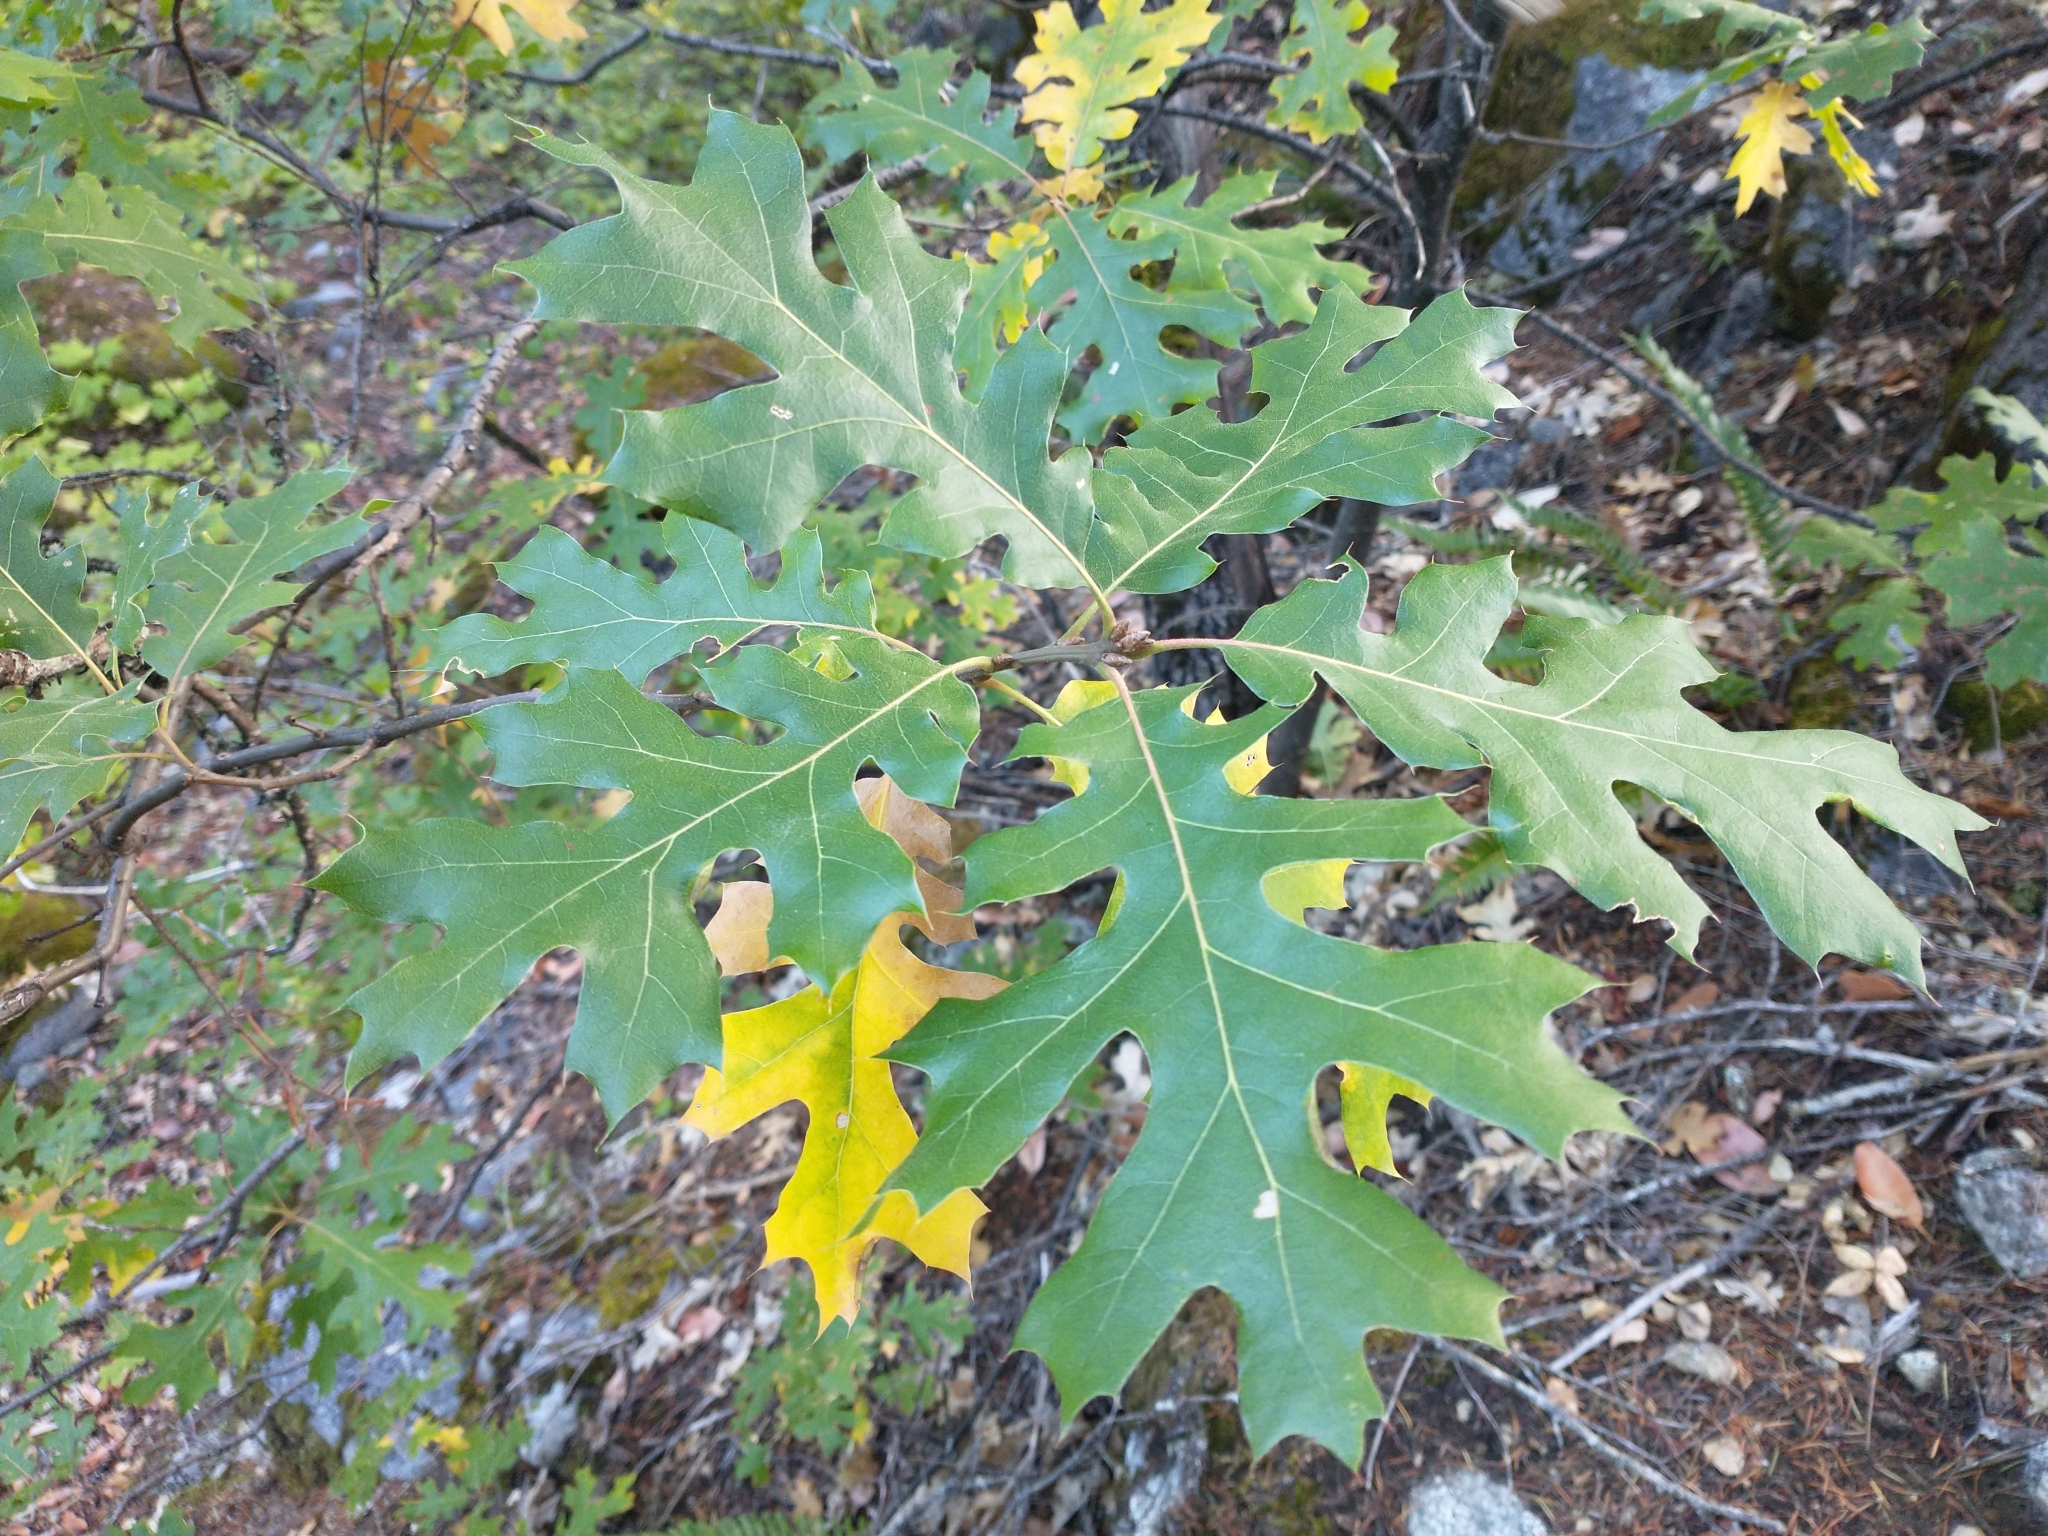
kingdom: Plantae
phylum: Tracheophyta
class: Magnoliopsida
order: Fagales
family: Fagaceae
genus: Quercus
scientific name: Quercus kelloggii
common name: California black oak
